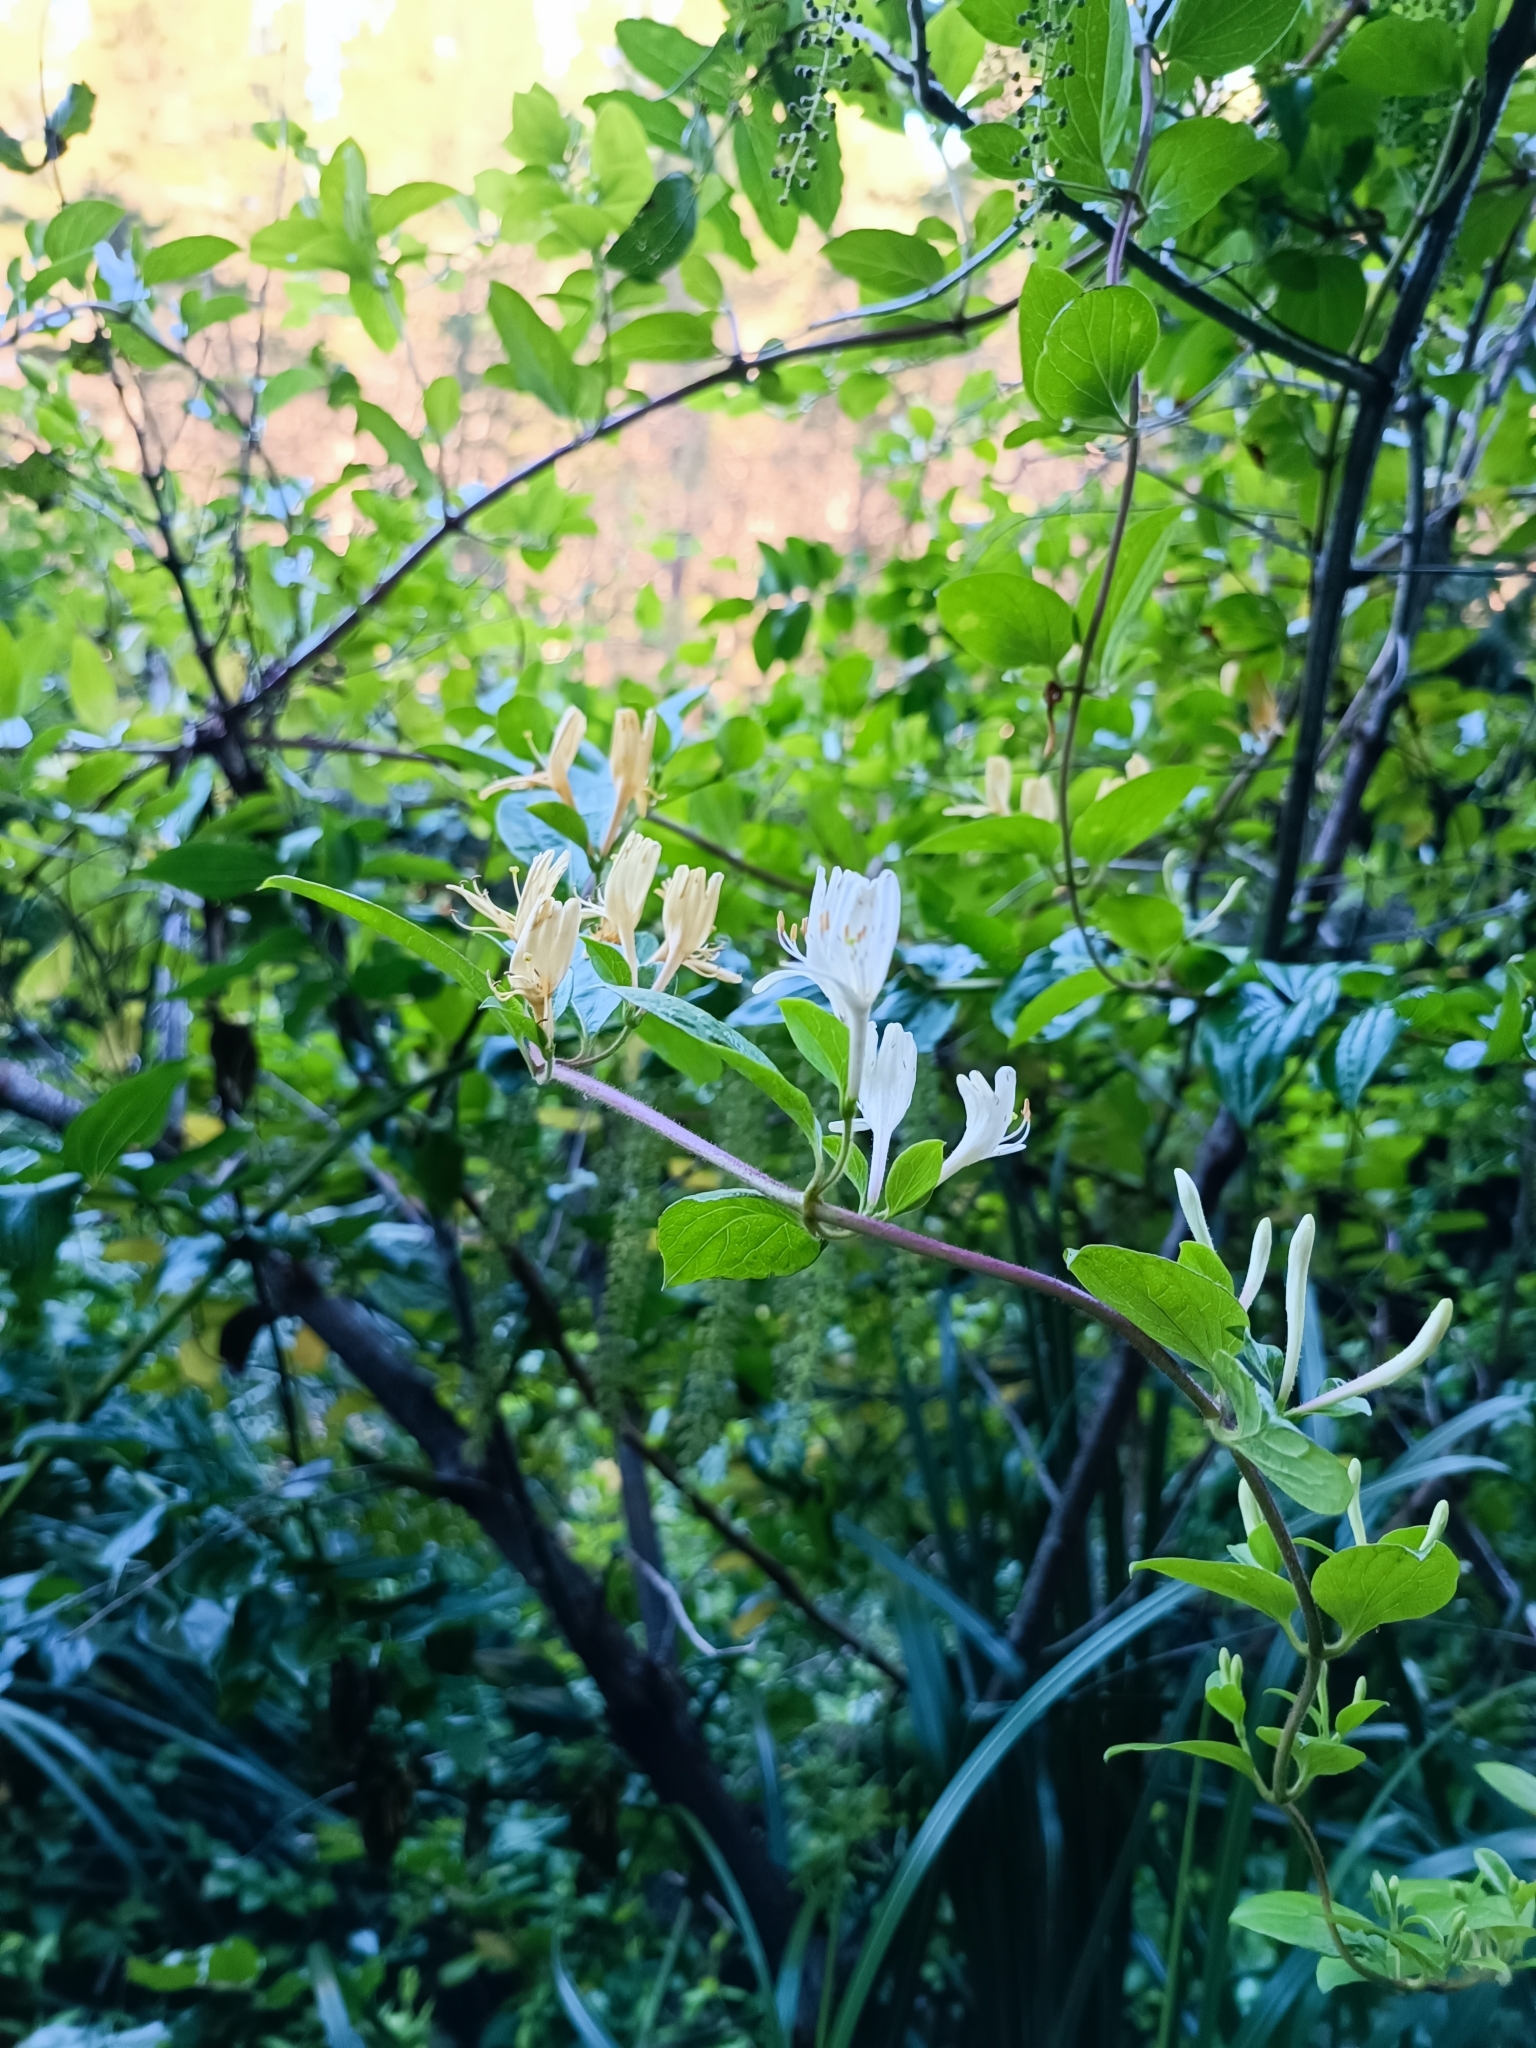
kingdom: Plantae
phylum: Tracheophyta
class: Magnoliopsida
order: Dipsacales
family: Caprifoliaceae
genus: Lonicera
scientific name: Lonicera japonica
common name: Japanese honeysuckle
